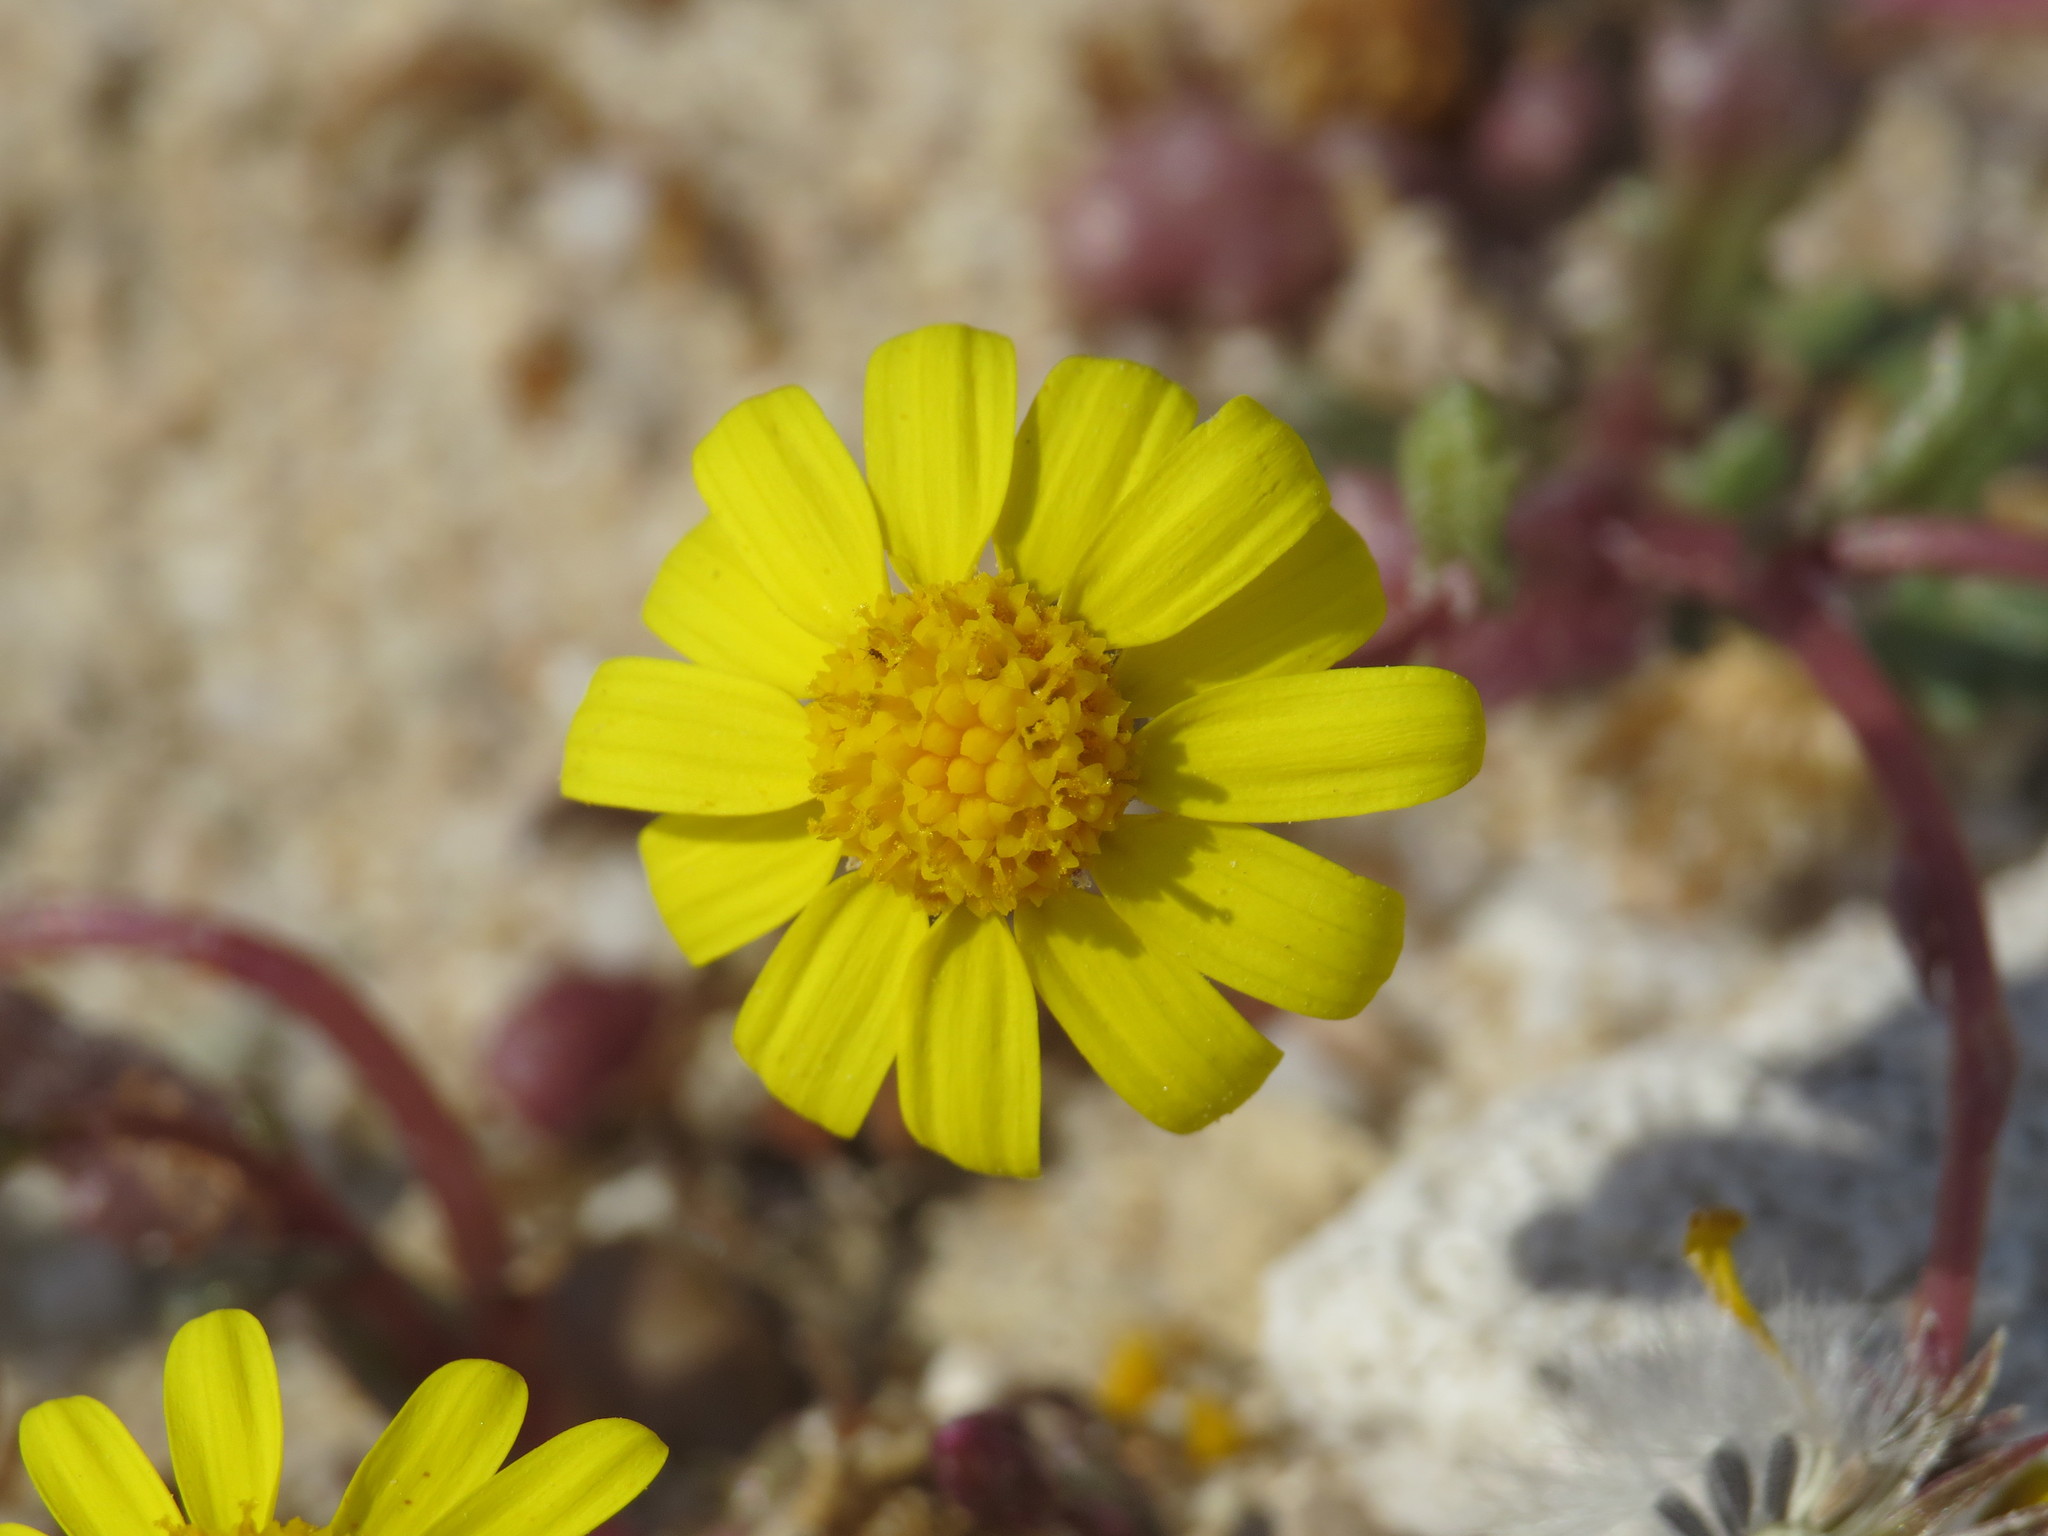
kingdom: Plantae
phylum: Tracheophyta
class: Magnoliopsida
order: Asterales
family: Asteraceae
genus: Senecio
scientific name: Senecio transiens
